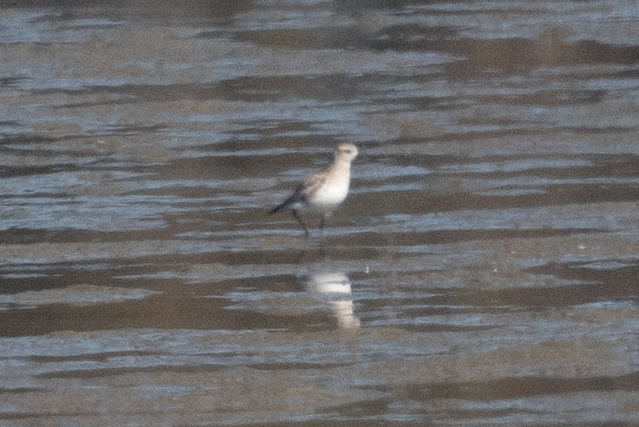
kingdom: Animalia
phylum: Chordata
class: Aves
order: Charadriiformes
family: Charadriidae
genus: Pluvialis
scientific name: Pluvialis squatarola
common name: Grey plover
